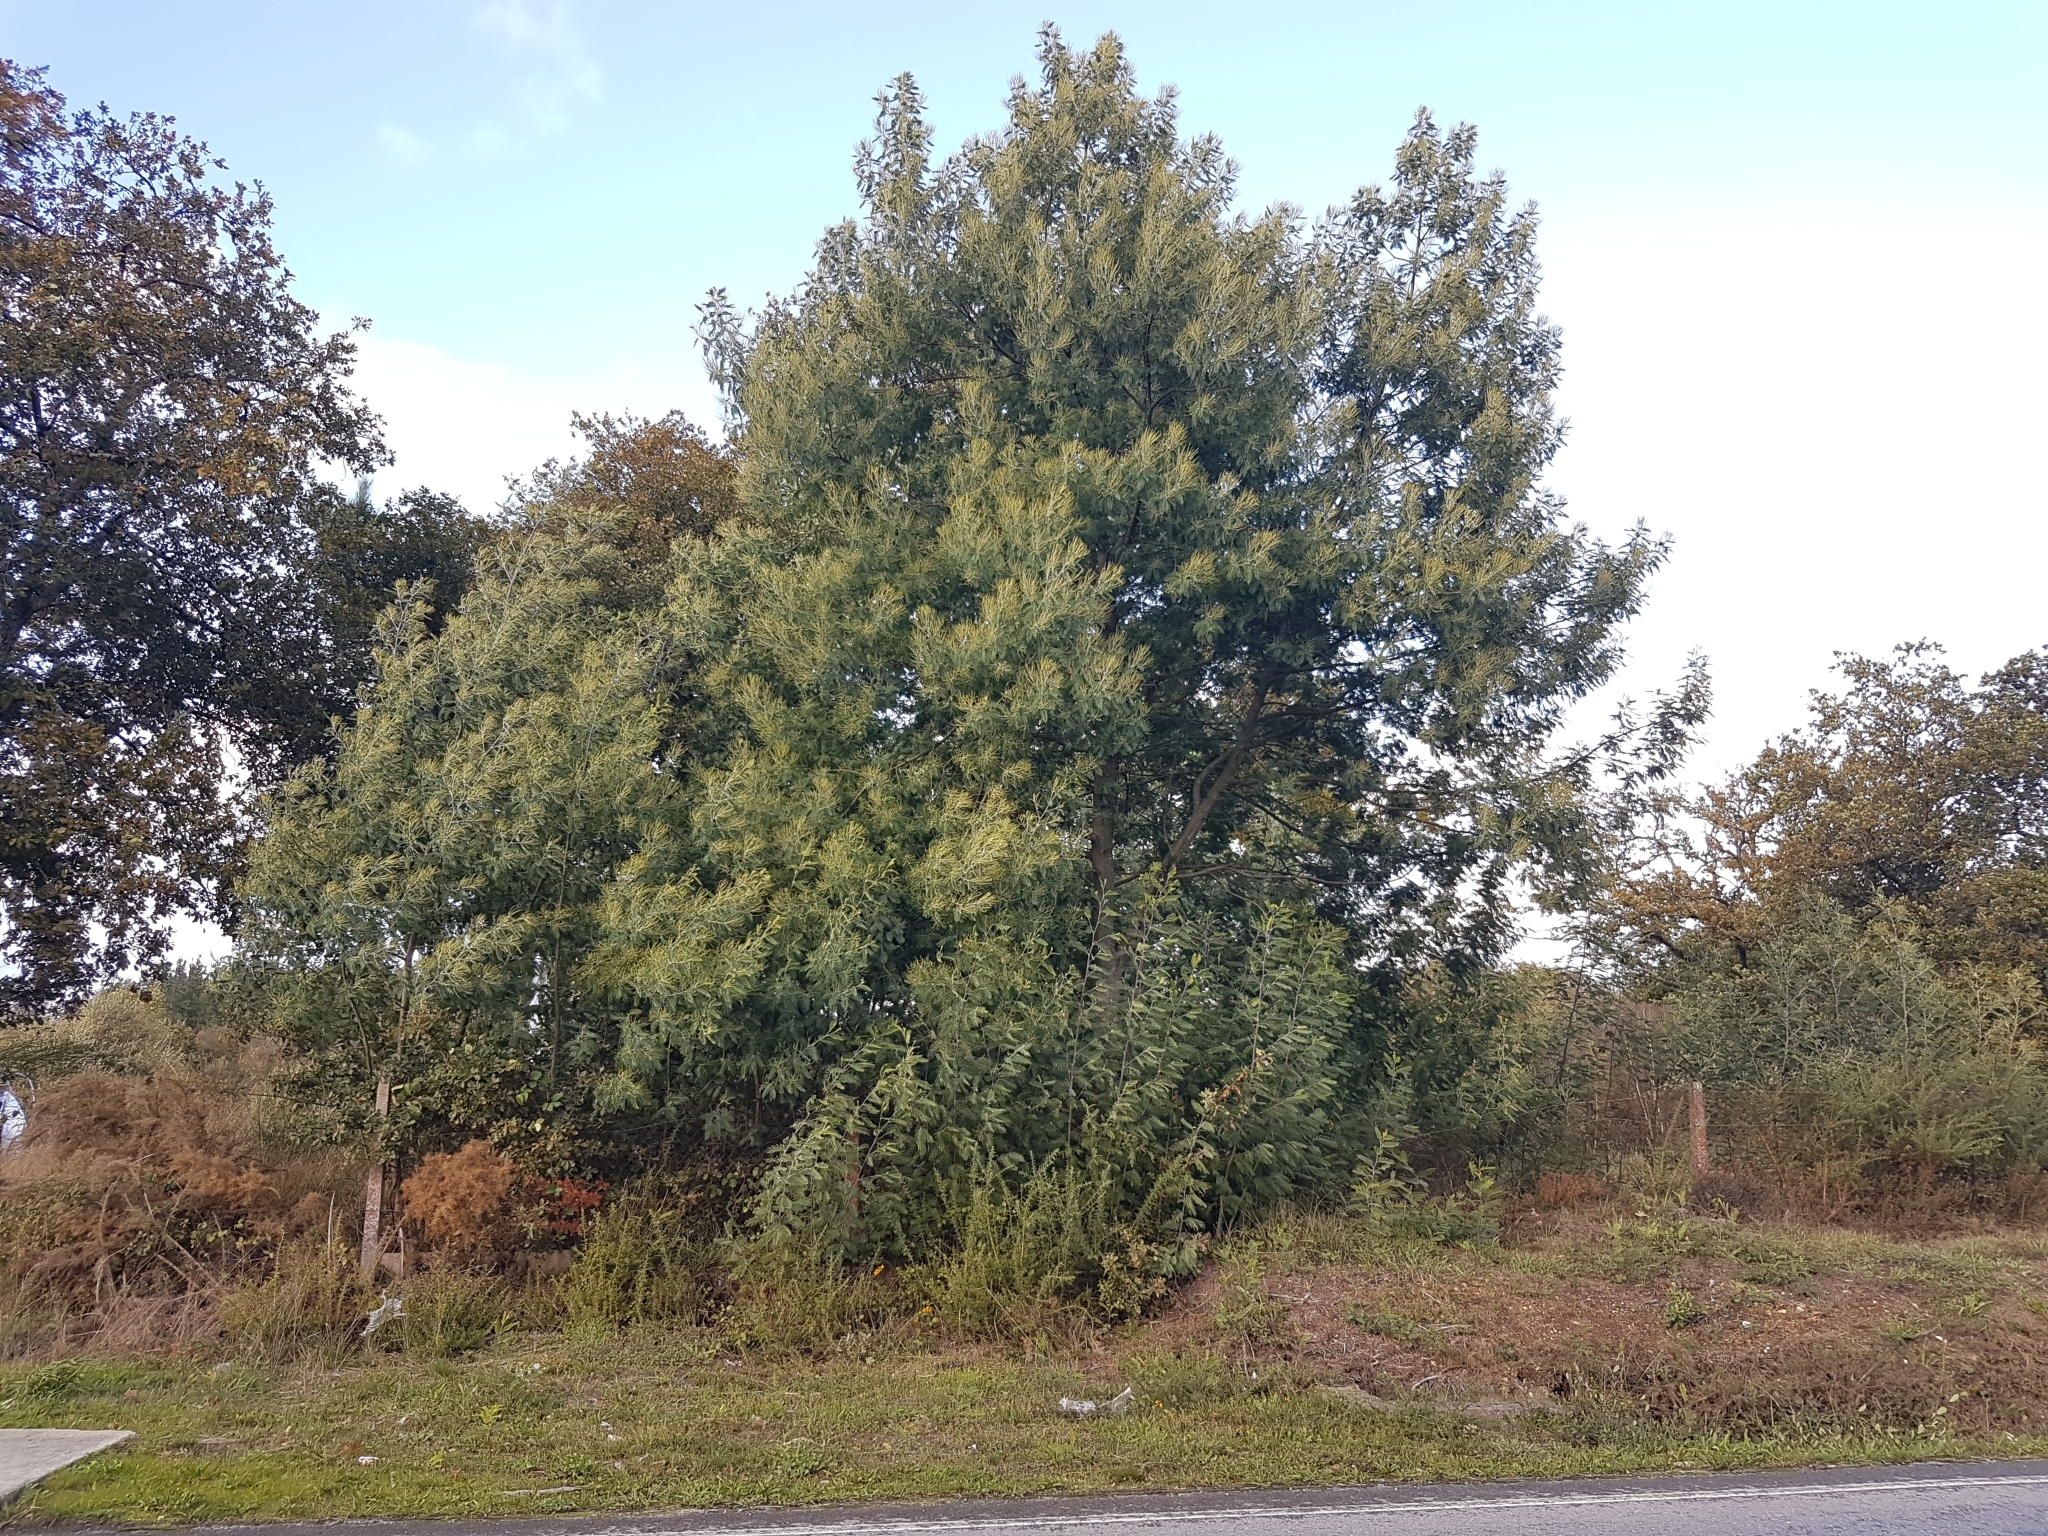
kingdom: Plantae
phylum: Tracheophyta
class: Magnoliopsida
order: Fabales
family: Fabaceae
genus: Acacia
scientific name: Acacia dealbata
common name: Silver wattle
